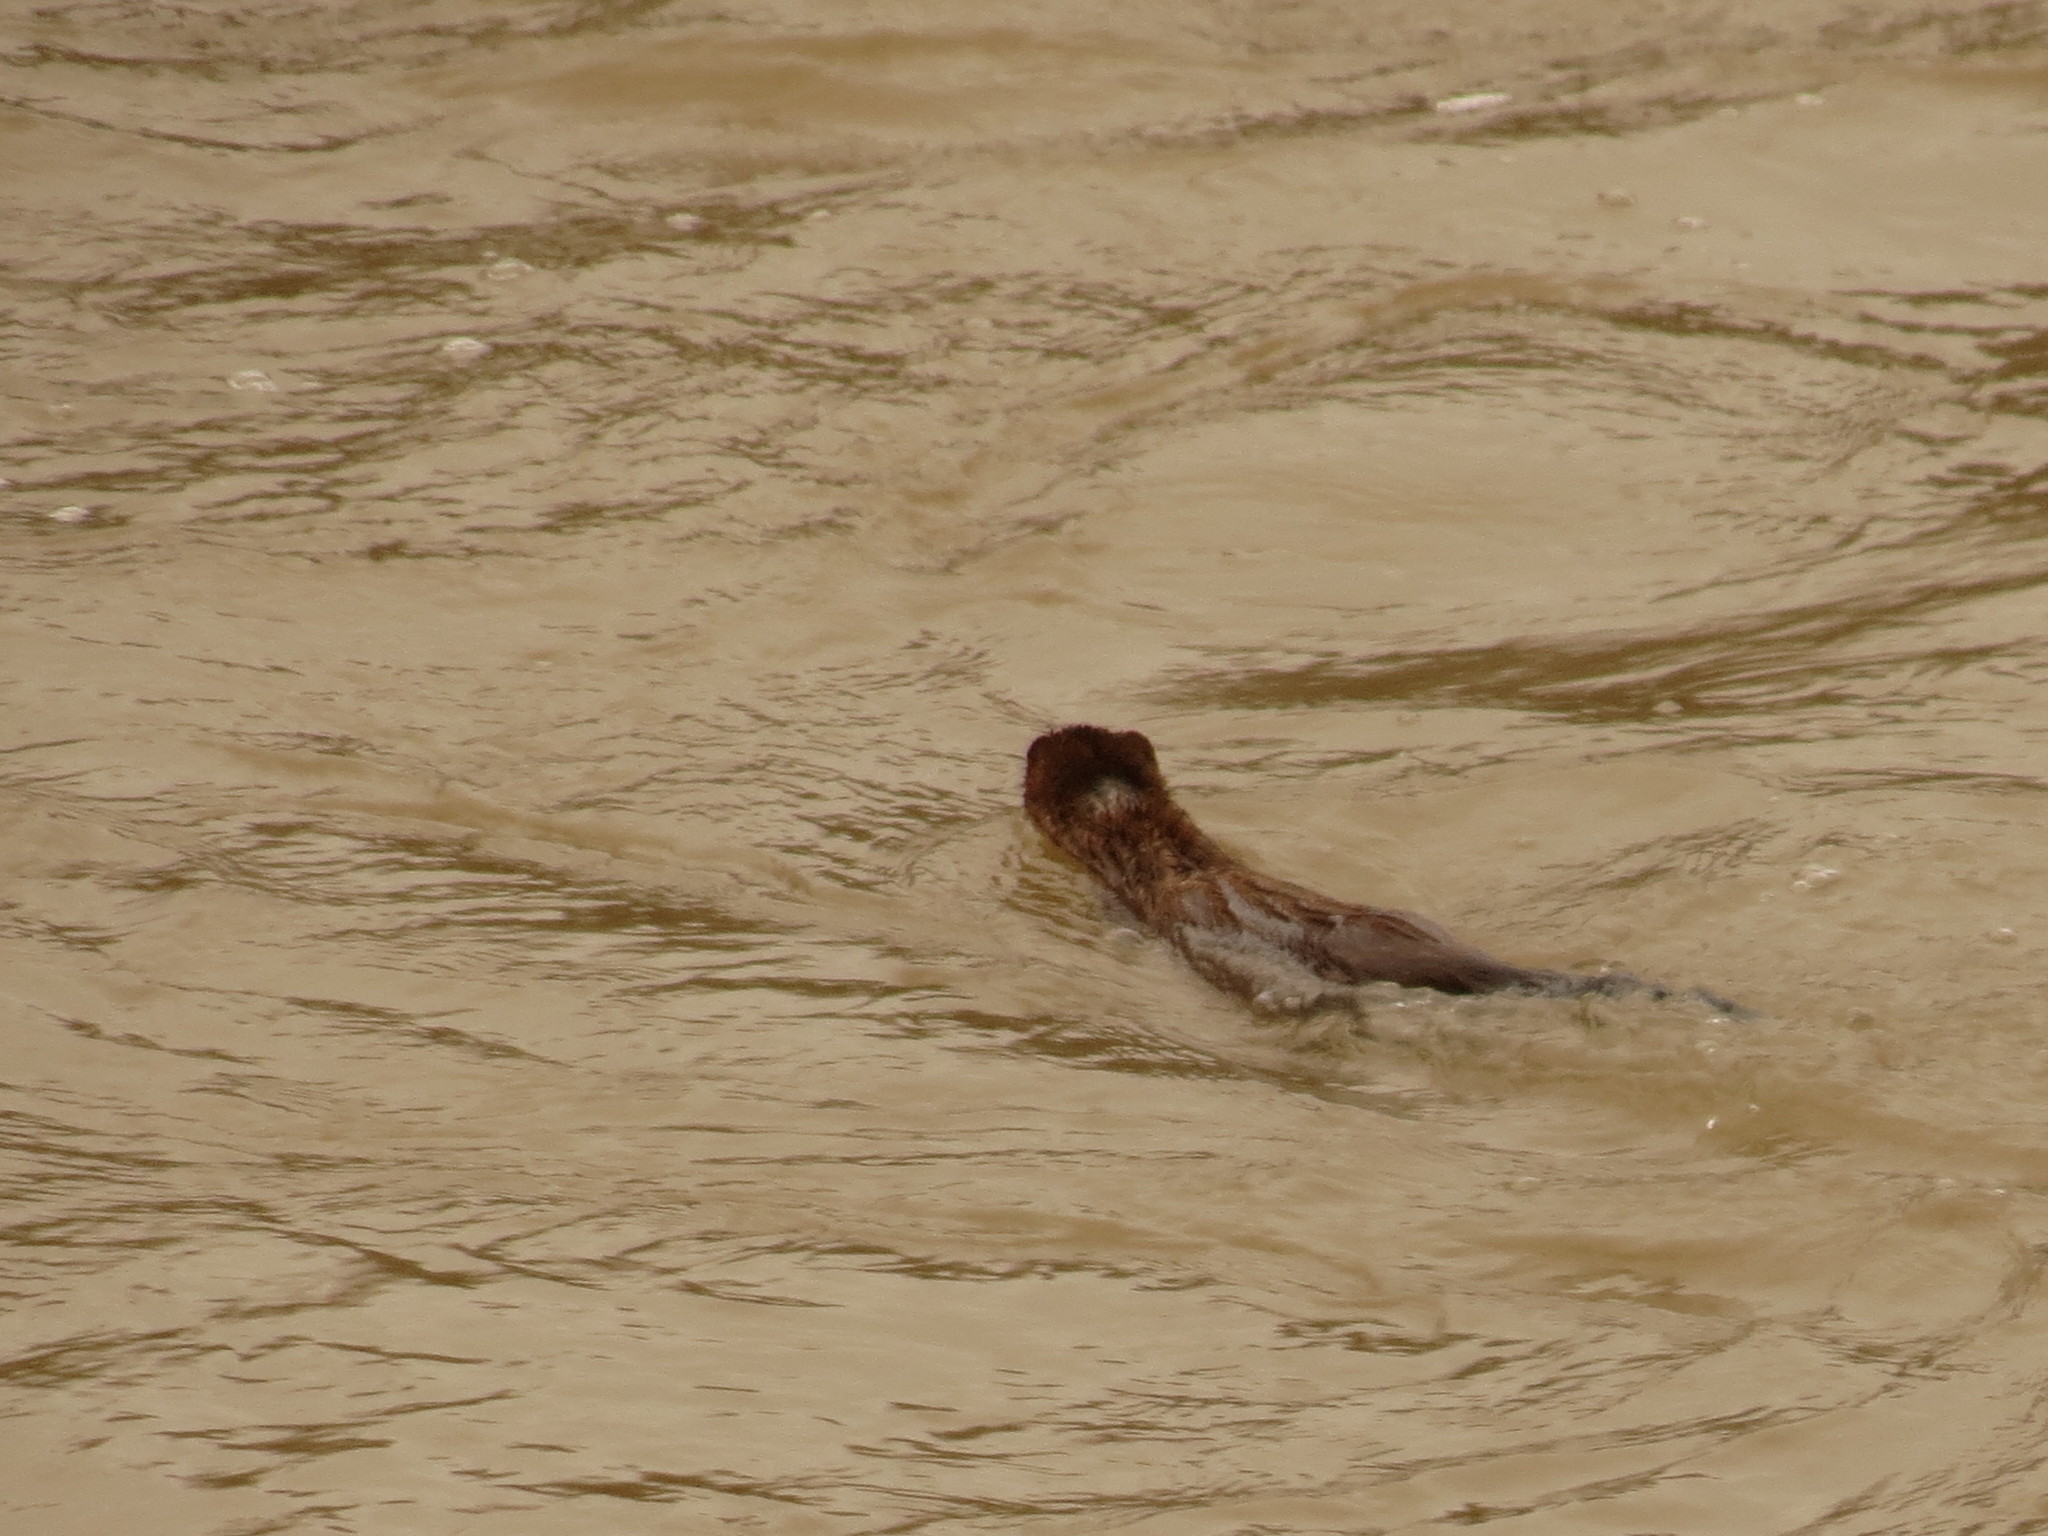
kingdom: Animalia
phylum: Chordata
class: Mammalia
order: Carnivora
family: Mustelidae
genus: Mustela
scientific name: Mustela
